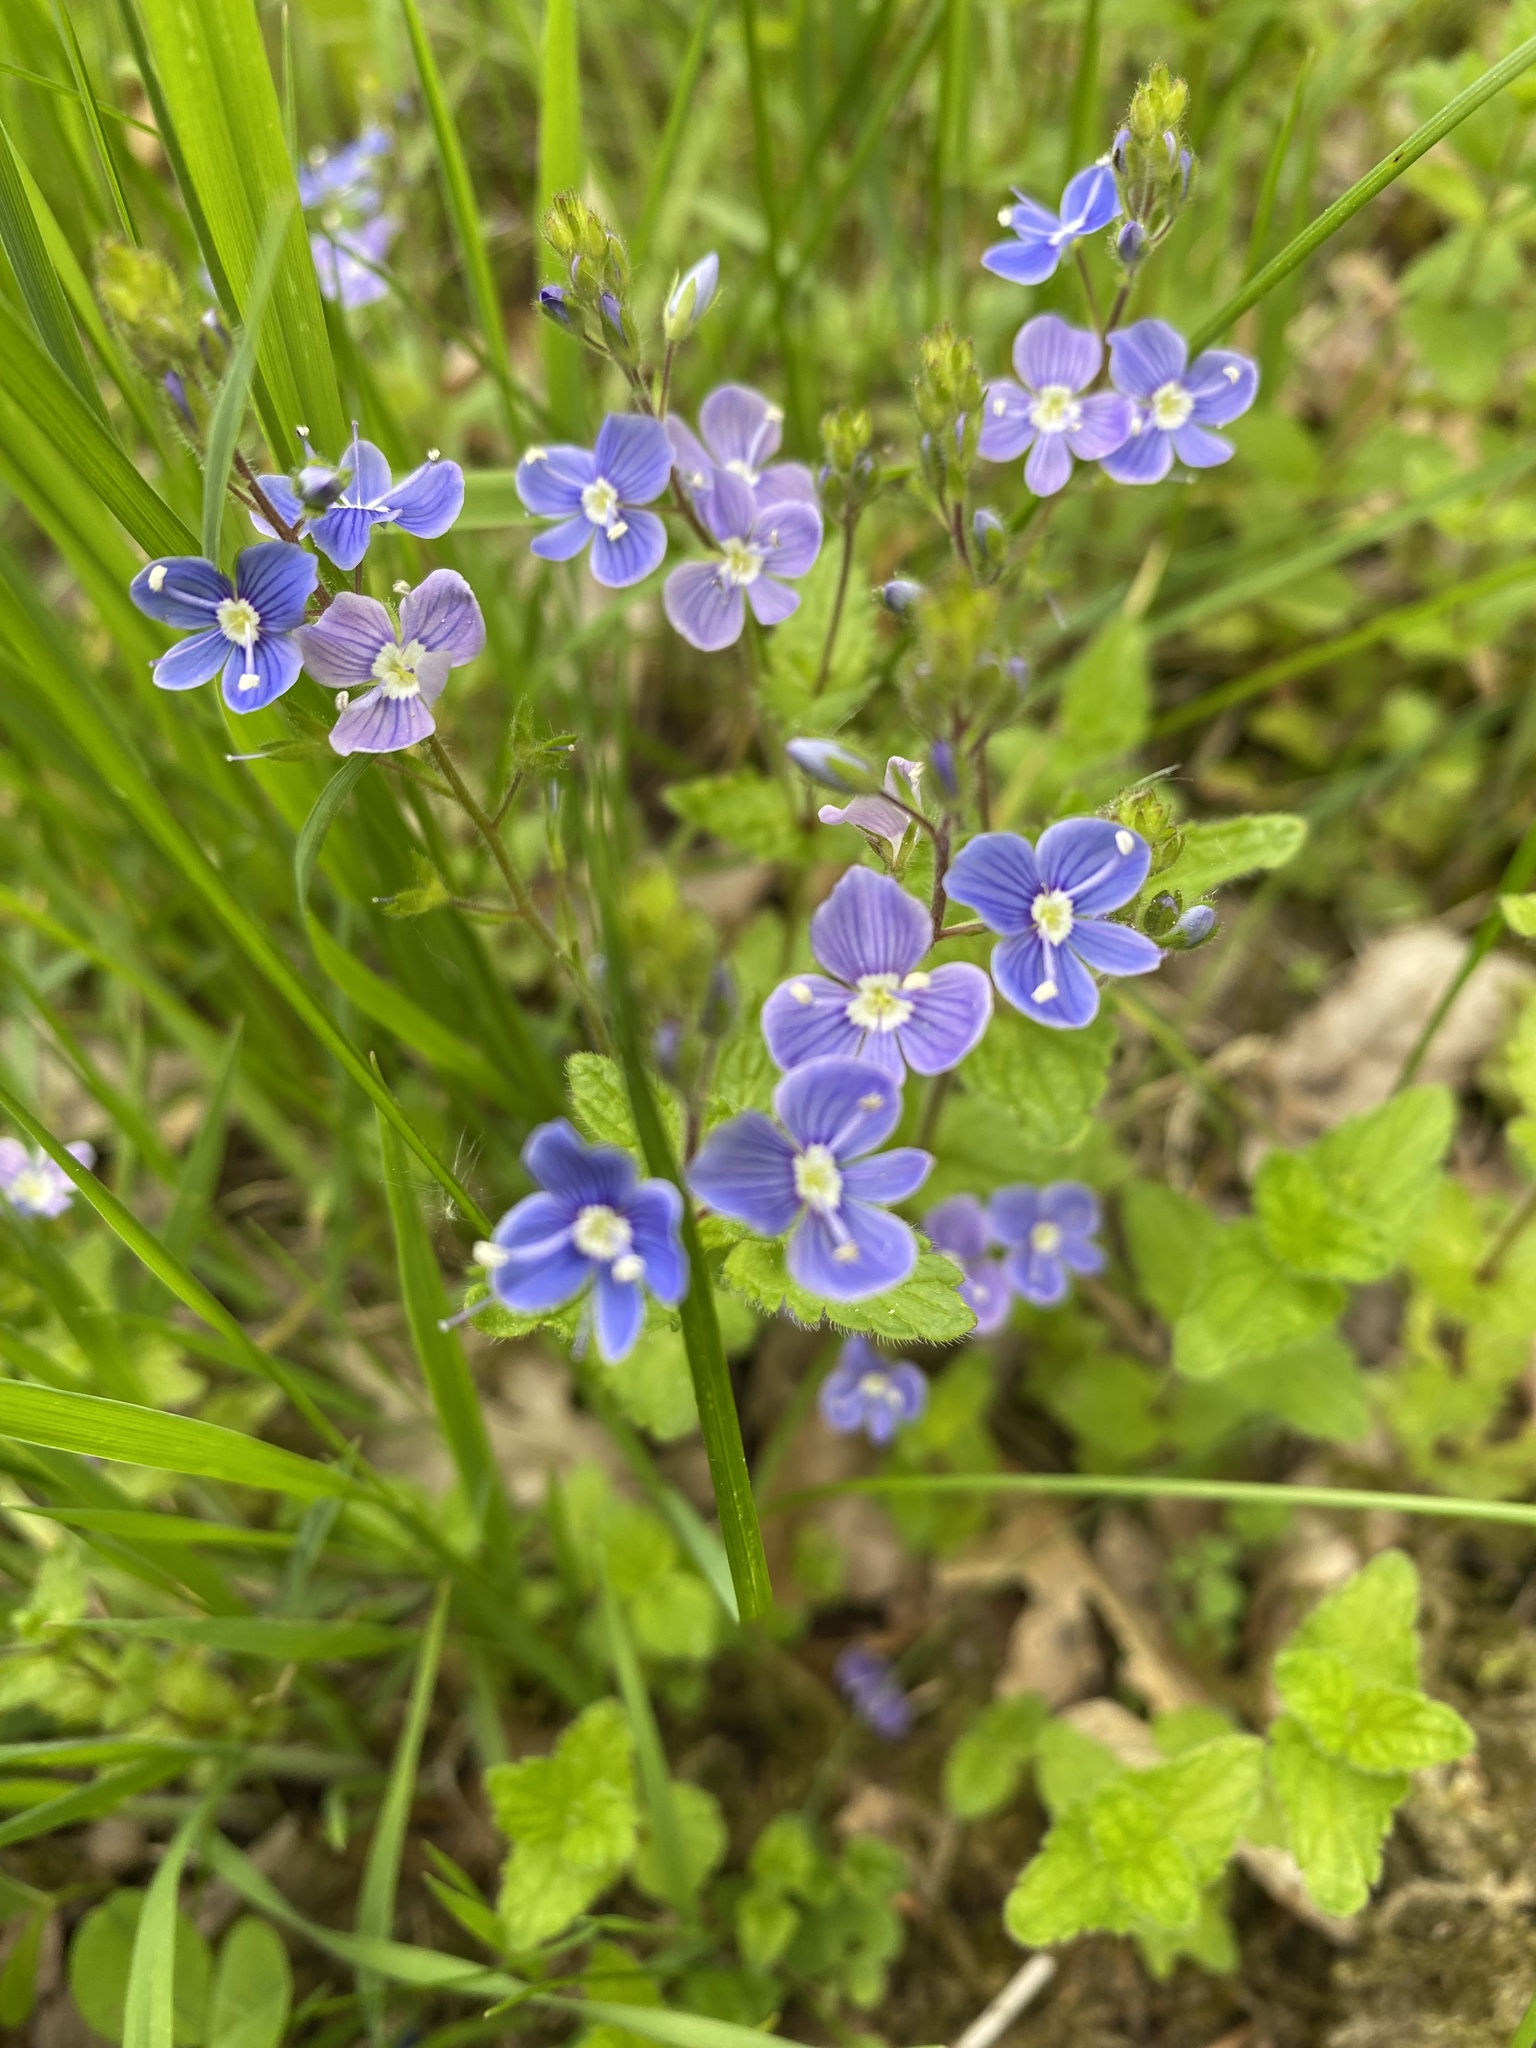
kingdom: Plantae
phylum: Tracheophyta
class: Magnoliopsida
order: Lamiales
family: Plantaginaceae
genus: Veronica
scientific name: Veronica chamaedrys
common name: Germander speedwell
